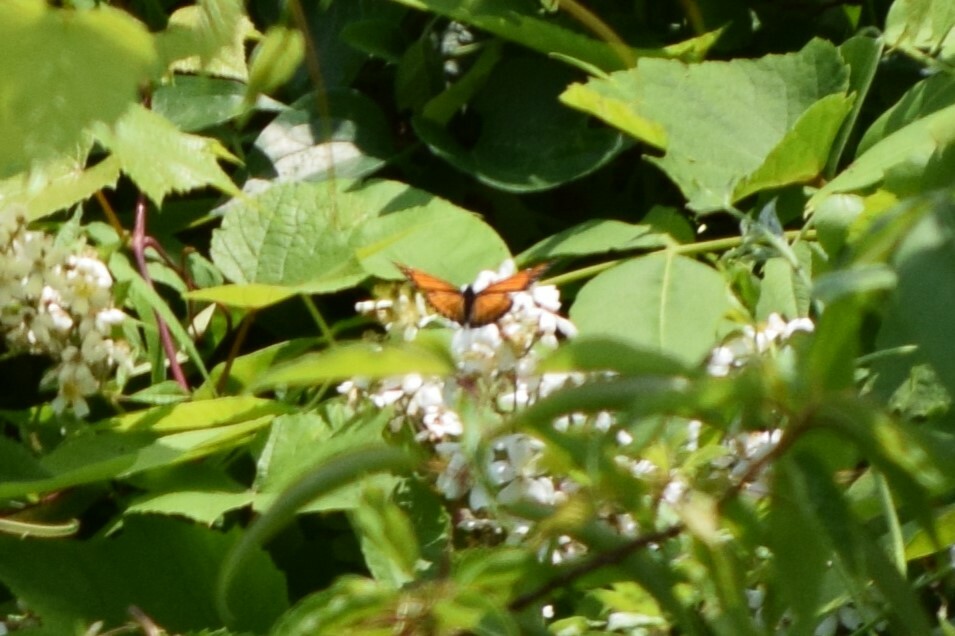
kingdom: Animalia
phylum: Arthropoda
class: Insecta
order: Lepidoptera
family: Nymphalidae
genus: Limenitis
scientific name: Limenitis archippus
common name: Viceroy
